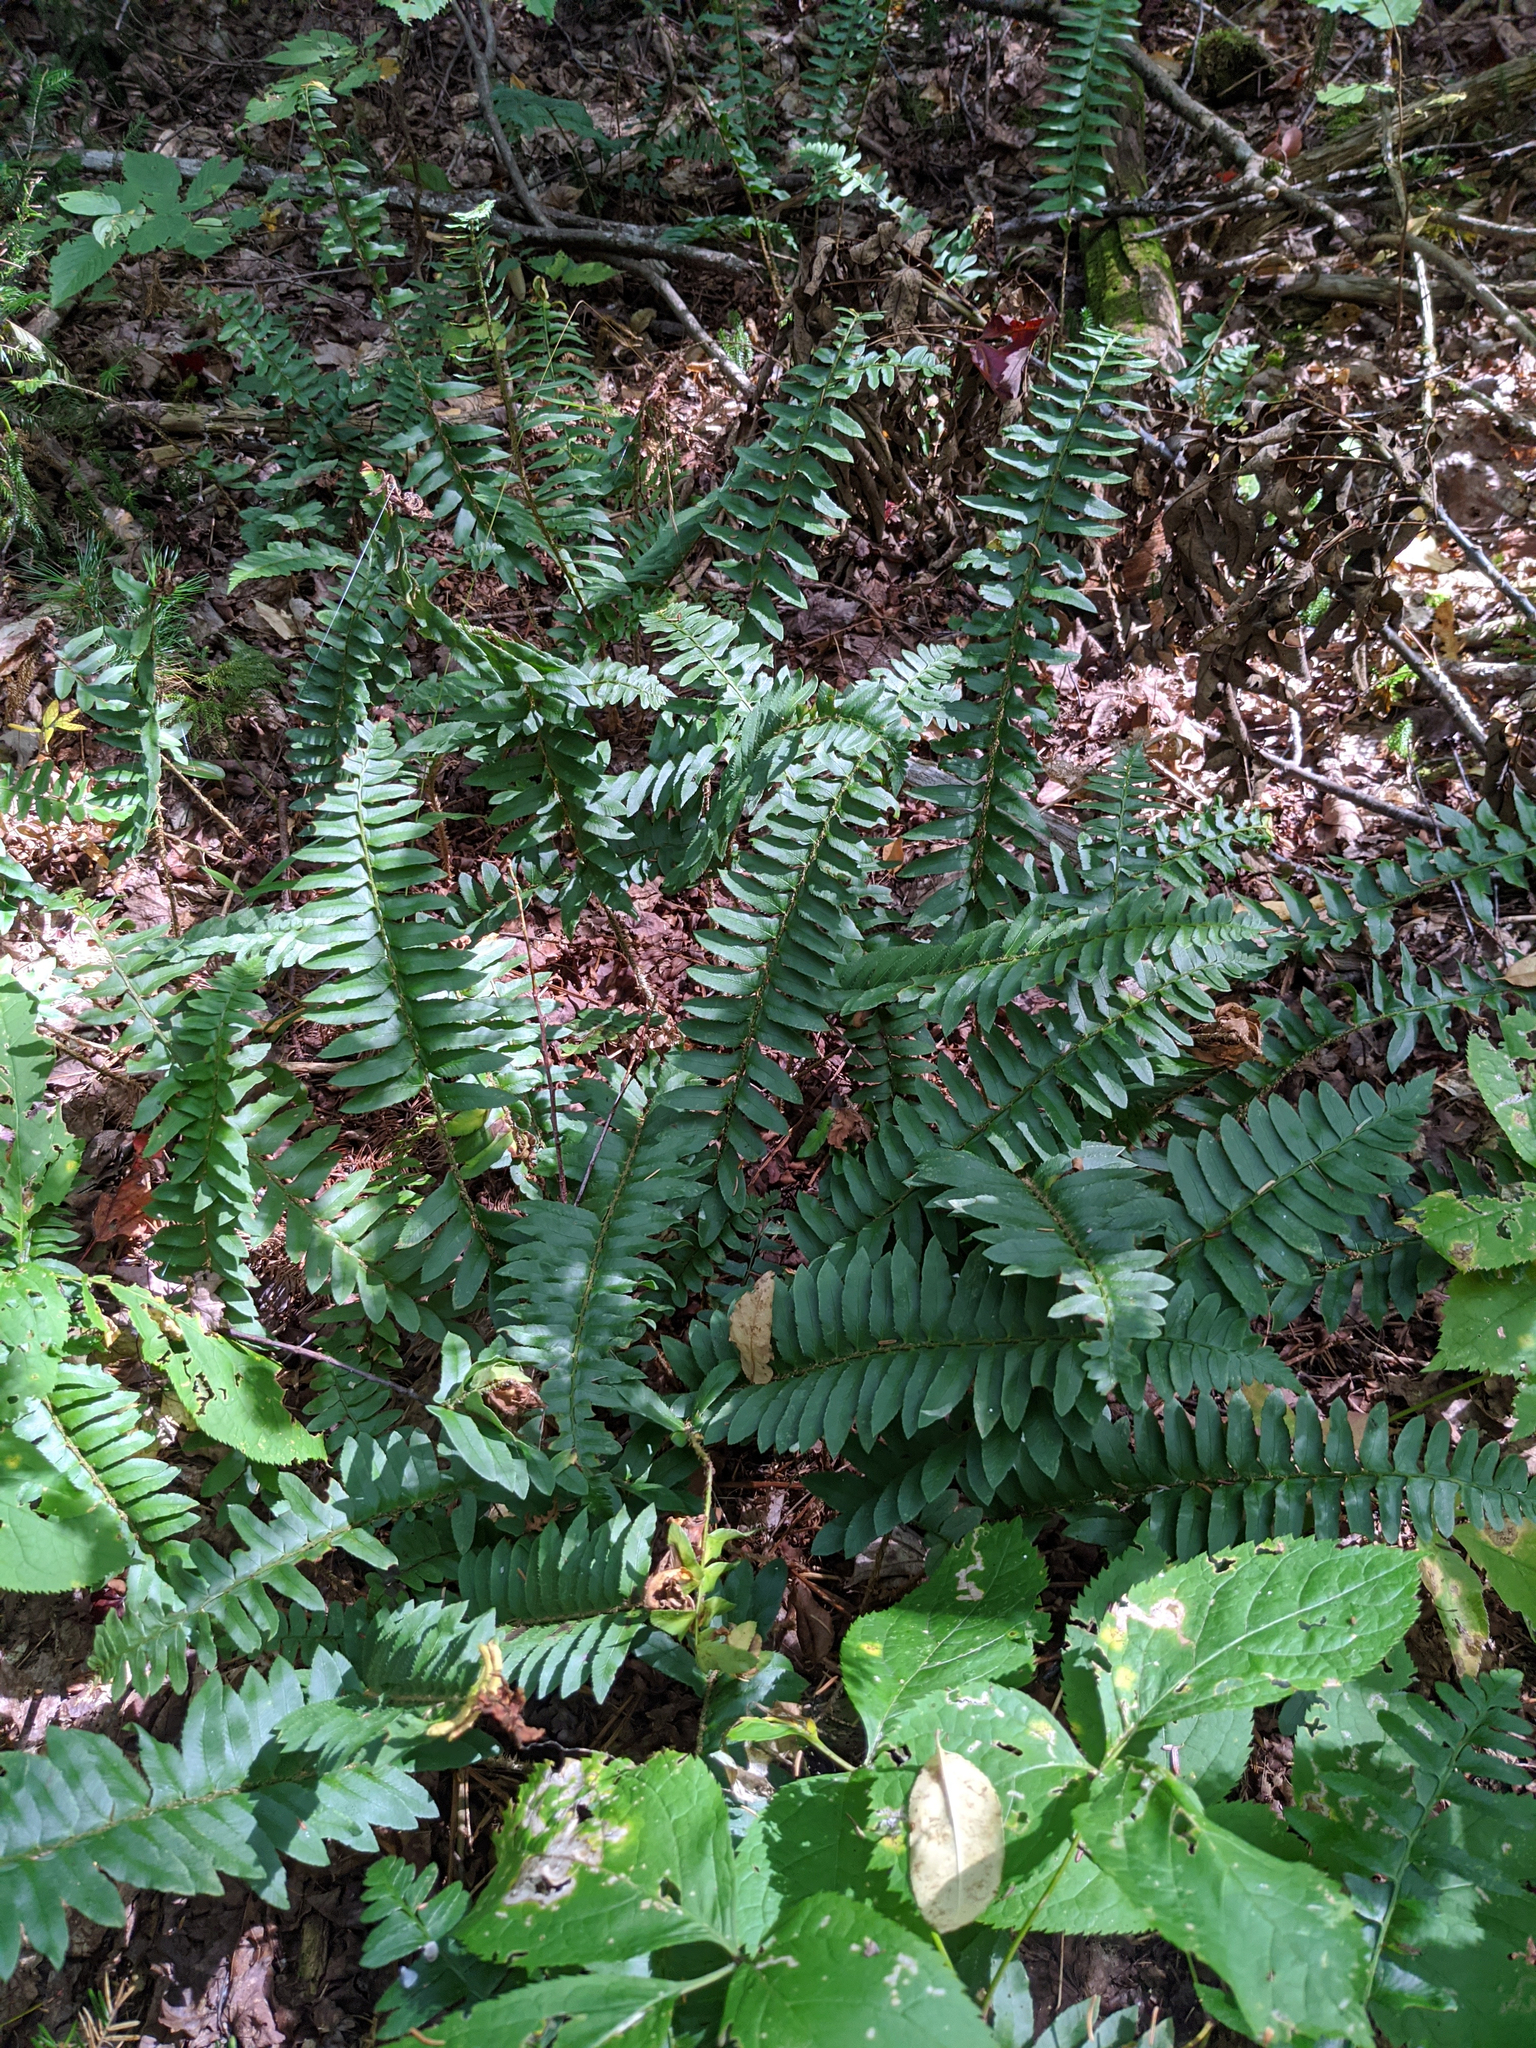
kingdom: Plantae
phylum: Tracheophyta
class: Polypodiopsida
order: Polypodiales
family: Dryopteridaceae
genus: Polystichum
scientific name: Polystichum acrostichoides
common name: Christmas fern
